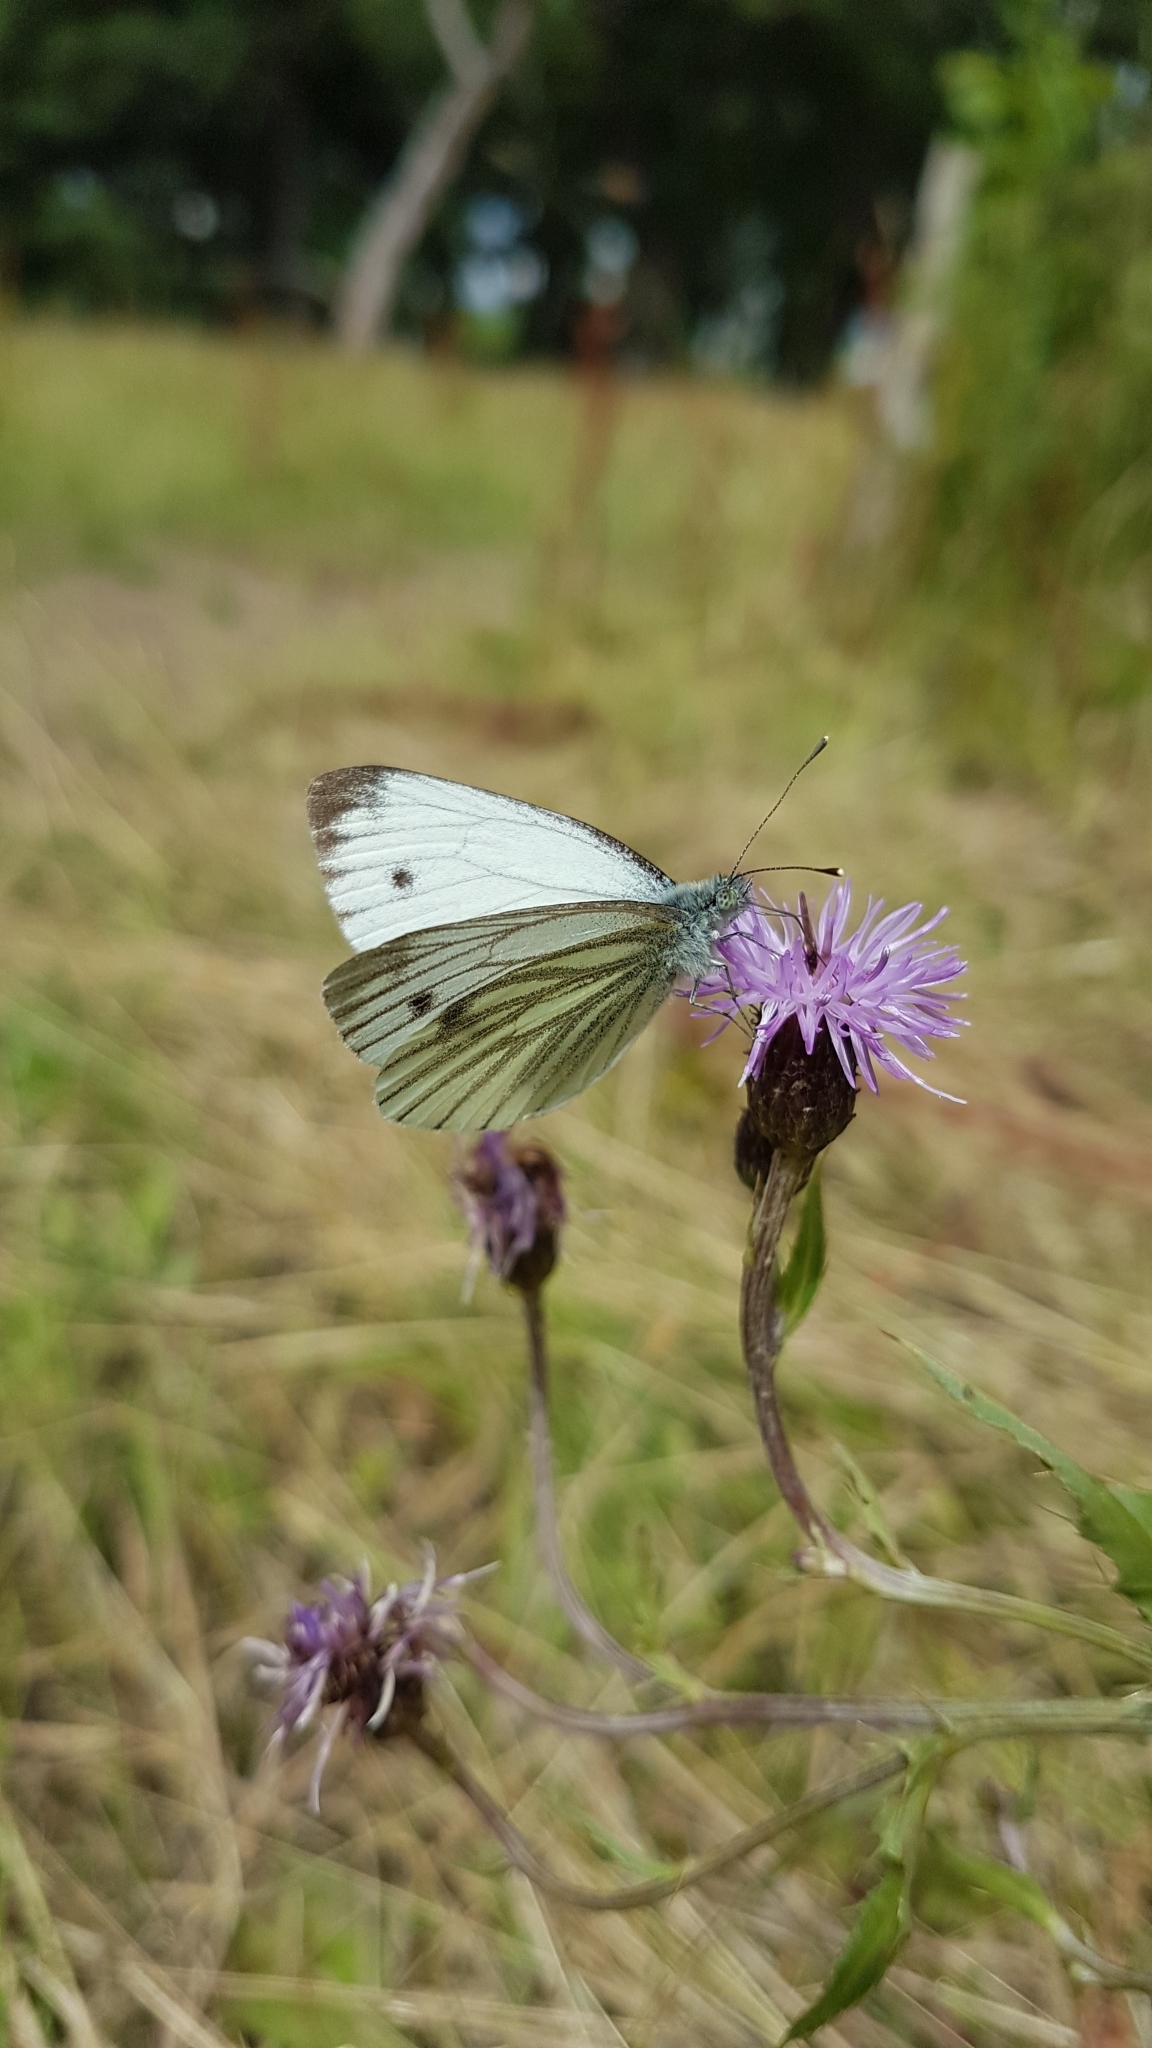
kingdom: Animalia
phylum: Arthropoda
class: Insecta
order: Lepidoptera
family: Pieridae
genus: Pieris
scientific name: Pieris napi
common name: Green-veined white
